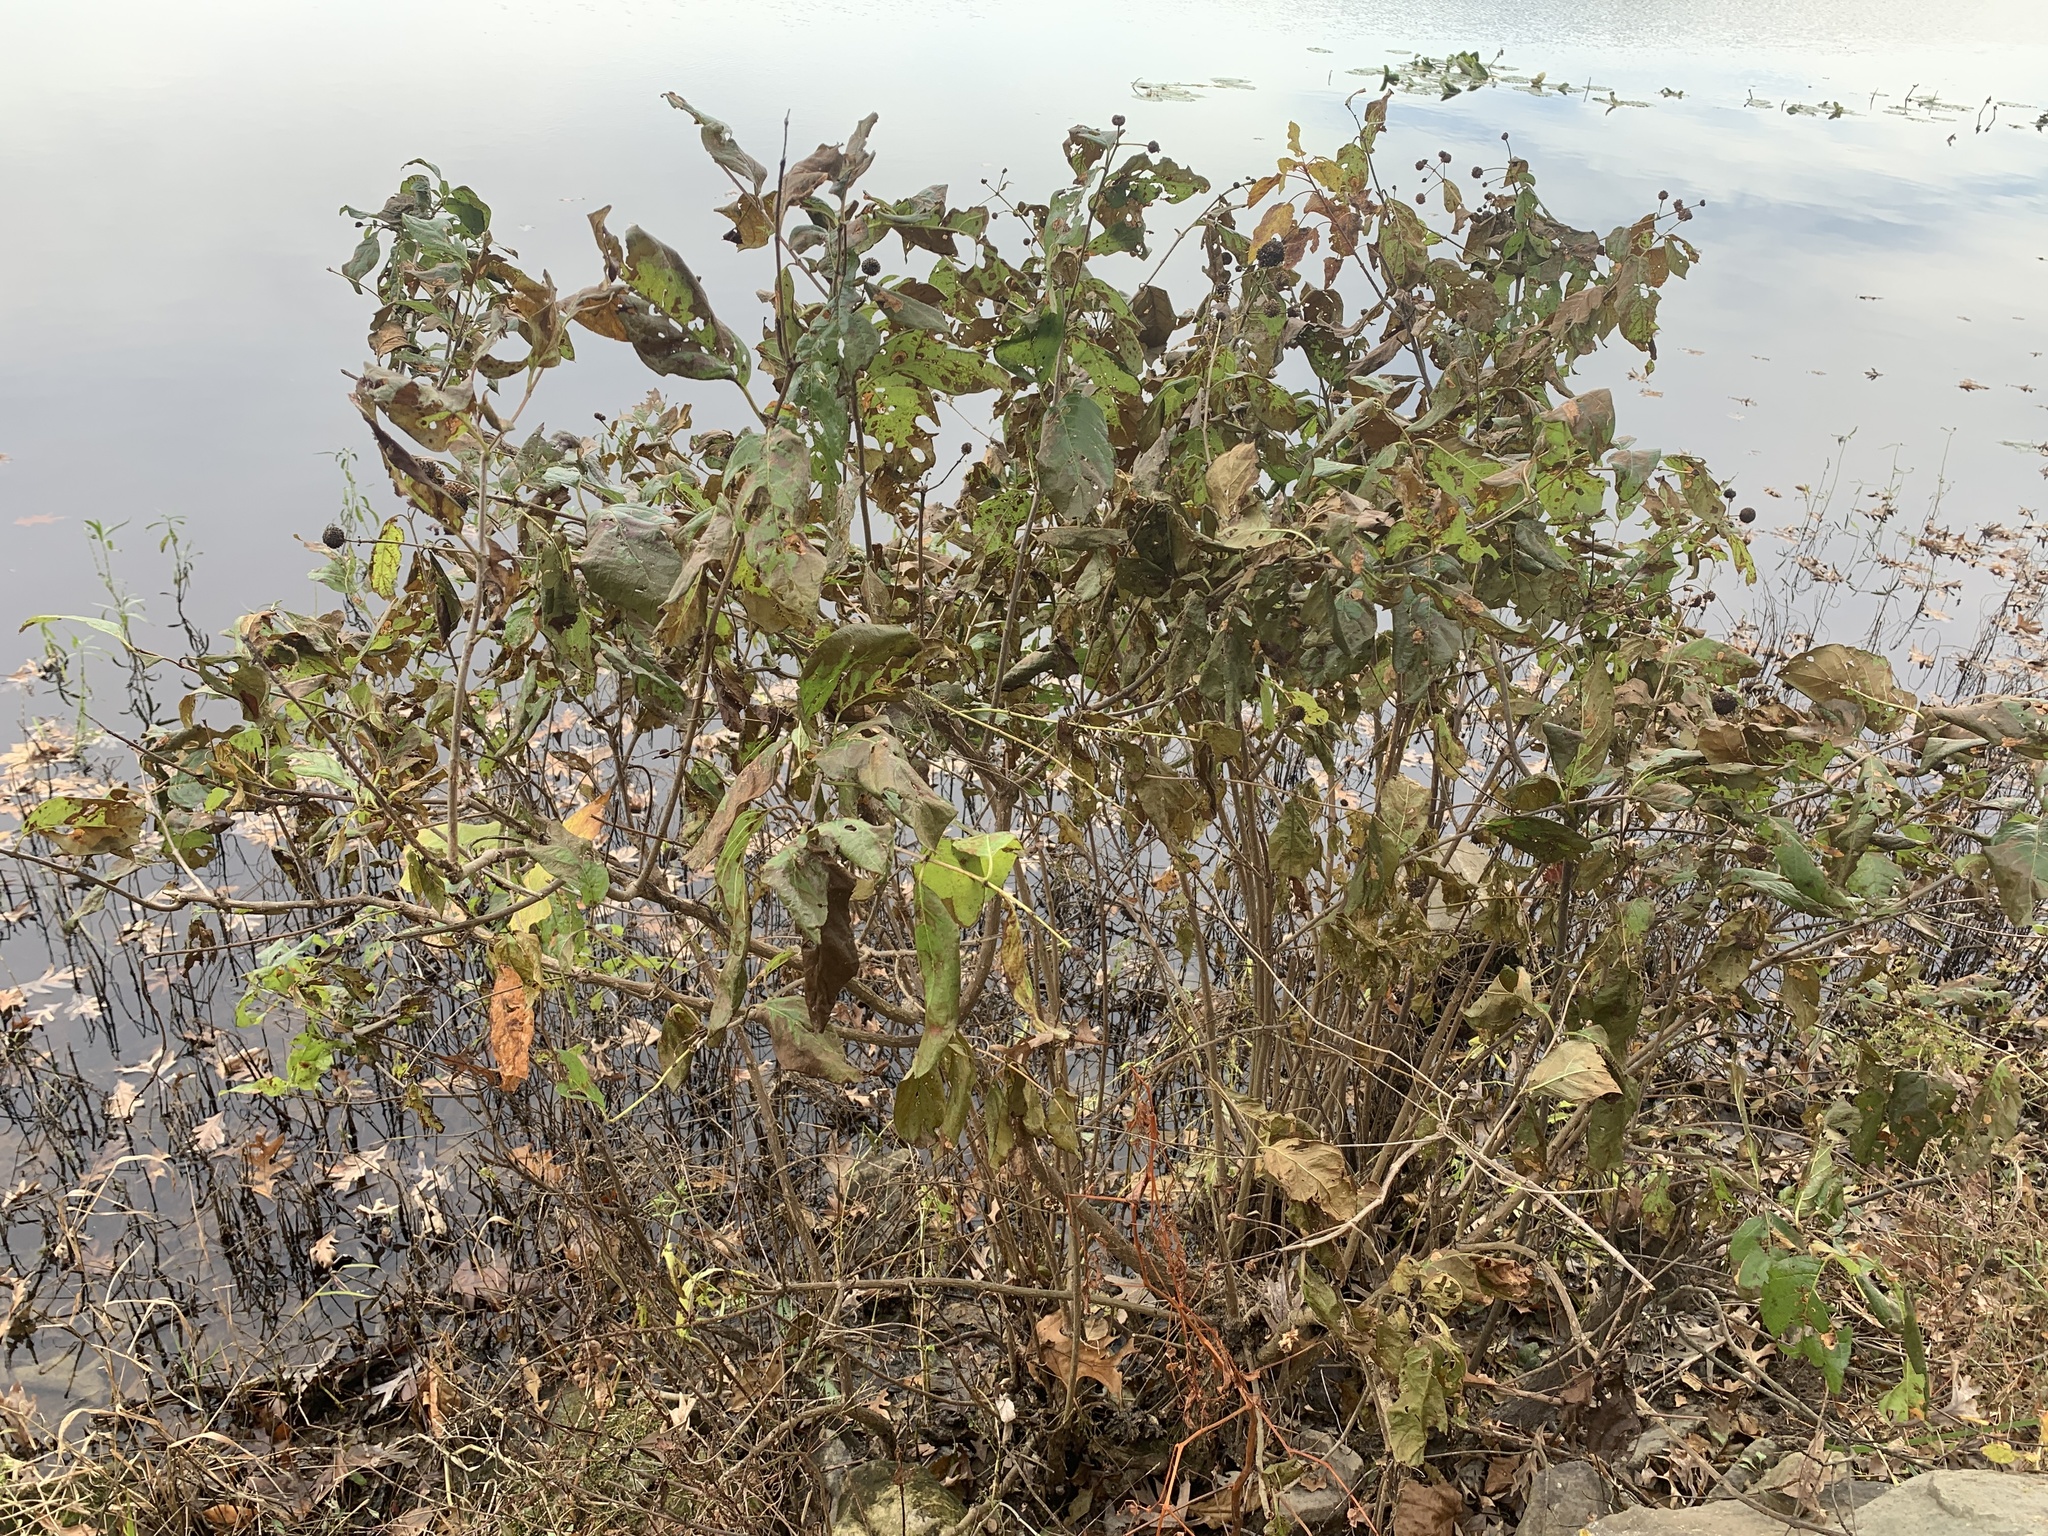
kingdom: Plantae
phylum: Tracheophyta
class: Magnoliopsida
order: Gentianales
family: Rubiaceae
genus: Cephalanthus
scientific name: Cephalanthus occidentalis
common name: Button-willow
